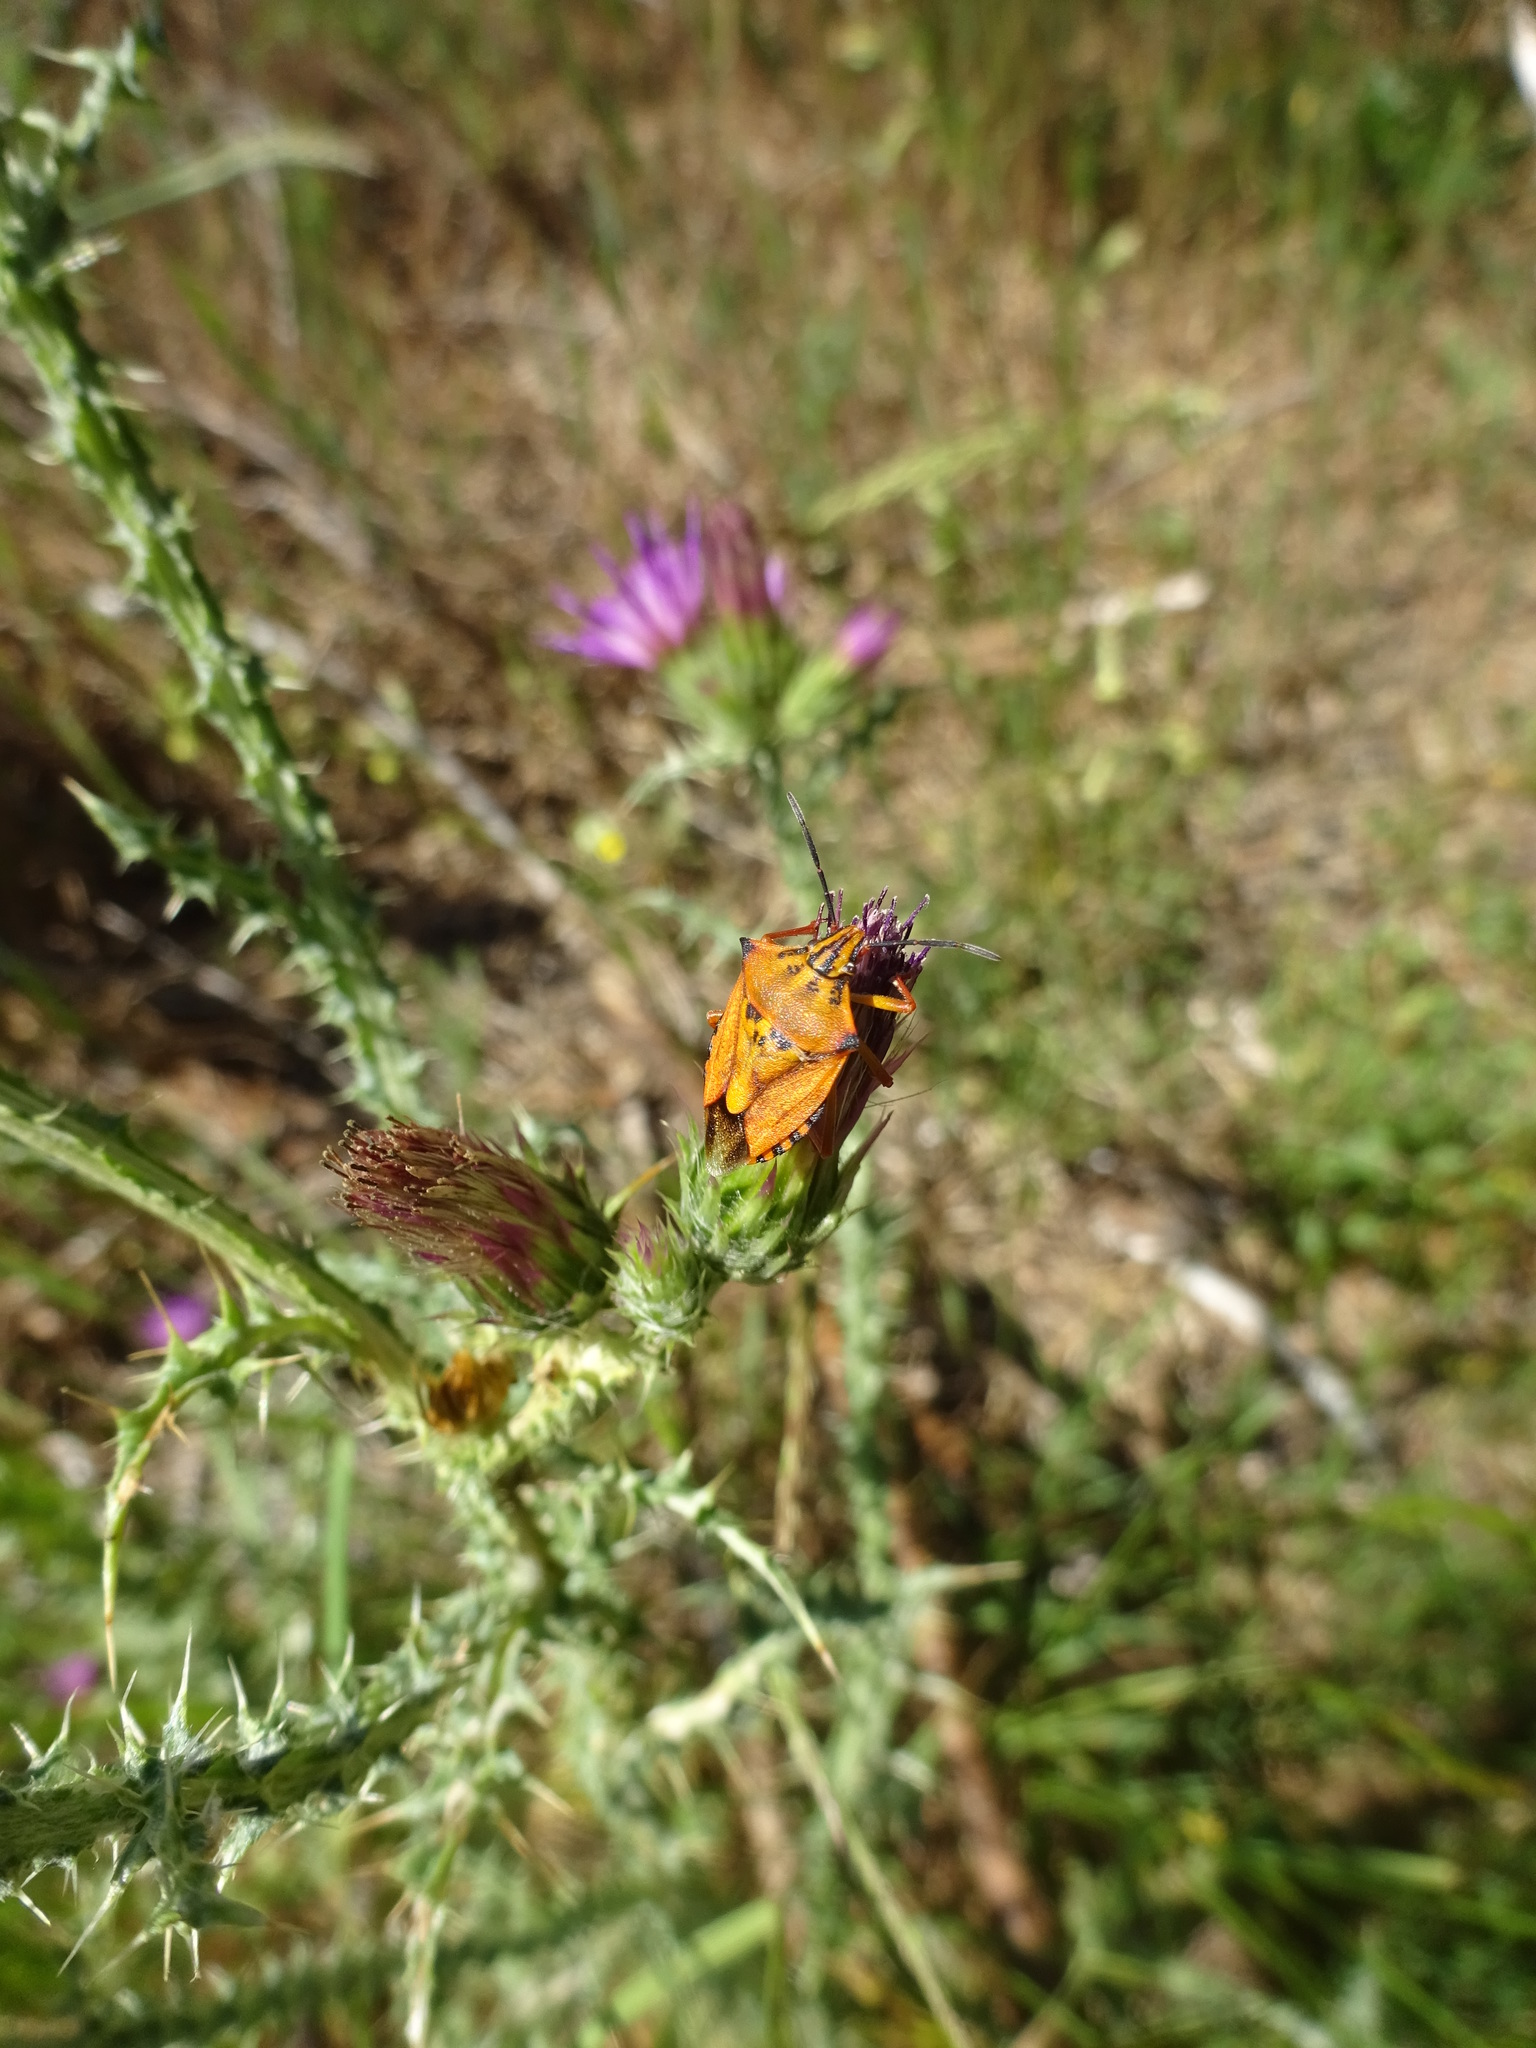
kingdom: Animalia
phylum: Arthropoda
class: Insecta
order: Hemiptera
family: Pentatomidae
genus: Carpocoris
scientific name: Carpocoris mediterraneus
